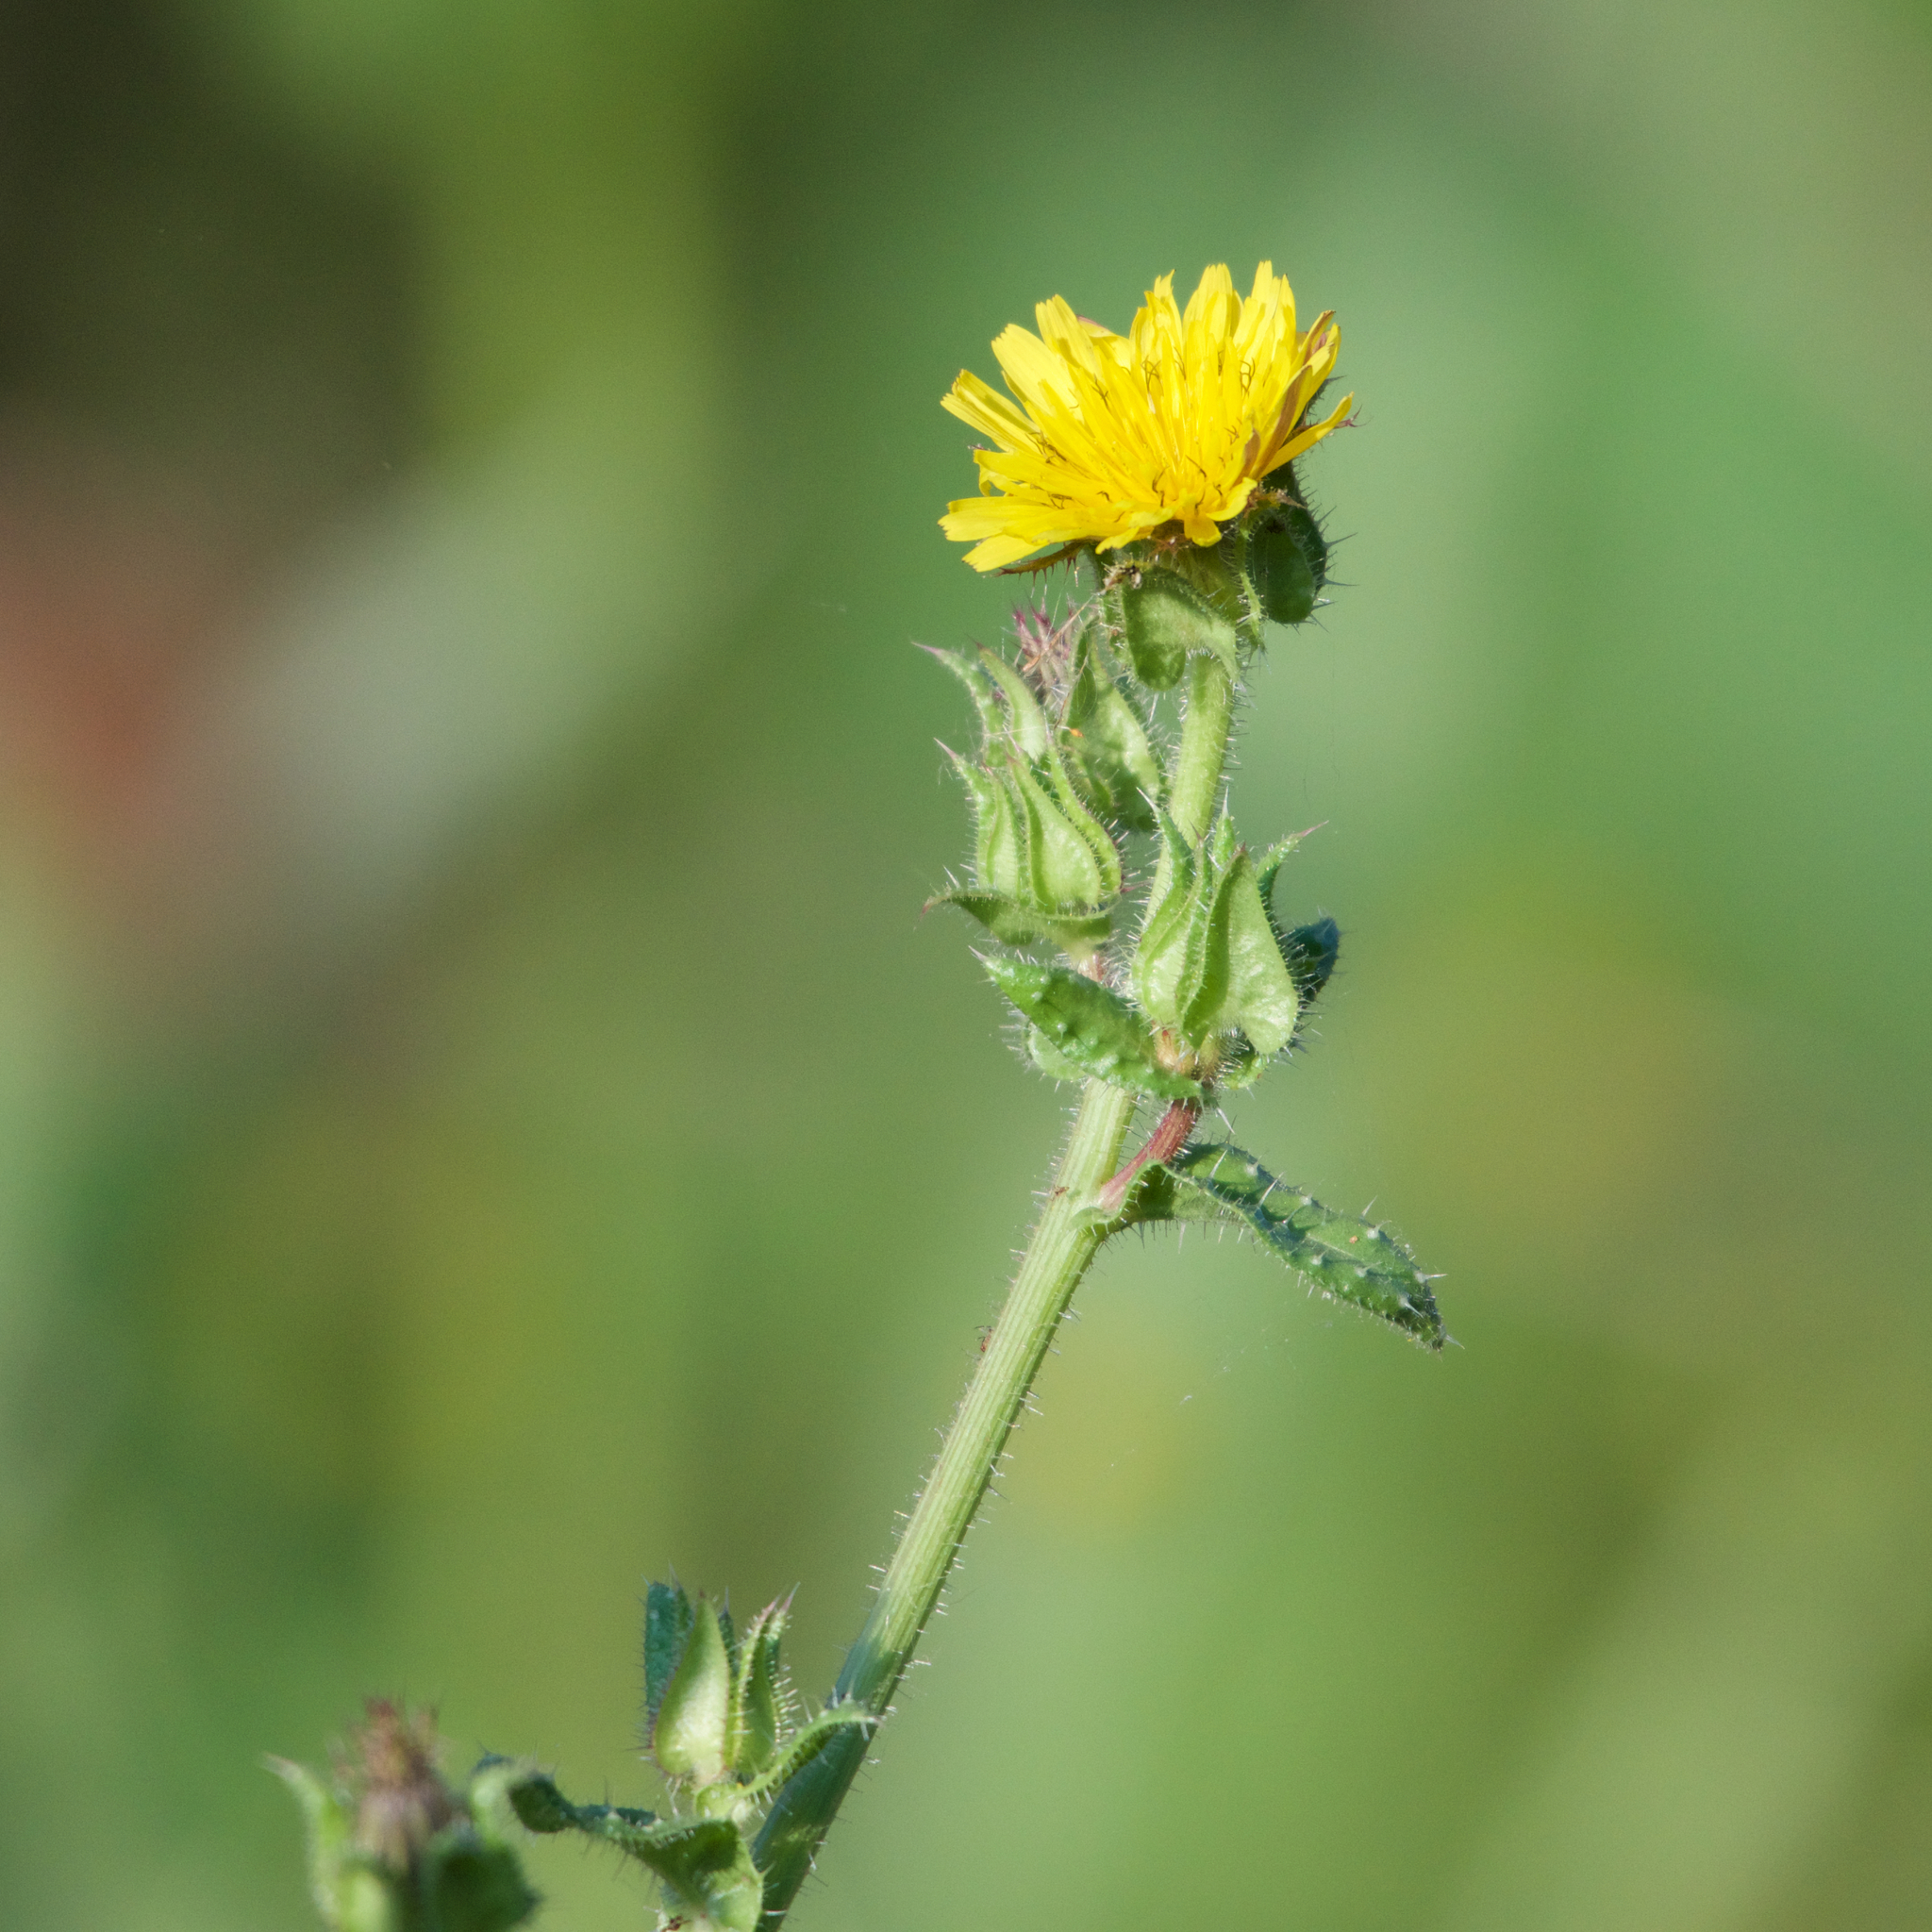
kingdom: Plantae
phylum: Tracheophyta
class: Magnoliopsida
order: Asterales
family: Asteraceae
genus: Helminthotheca
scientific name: Helminthotheca echioides
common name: Ox-tongue
